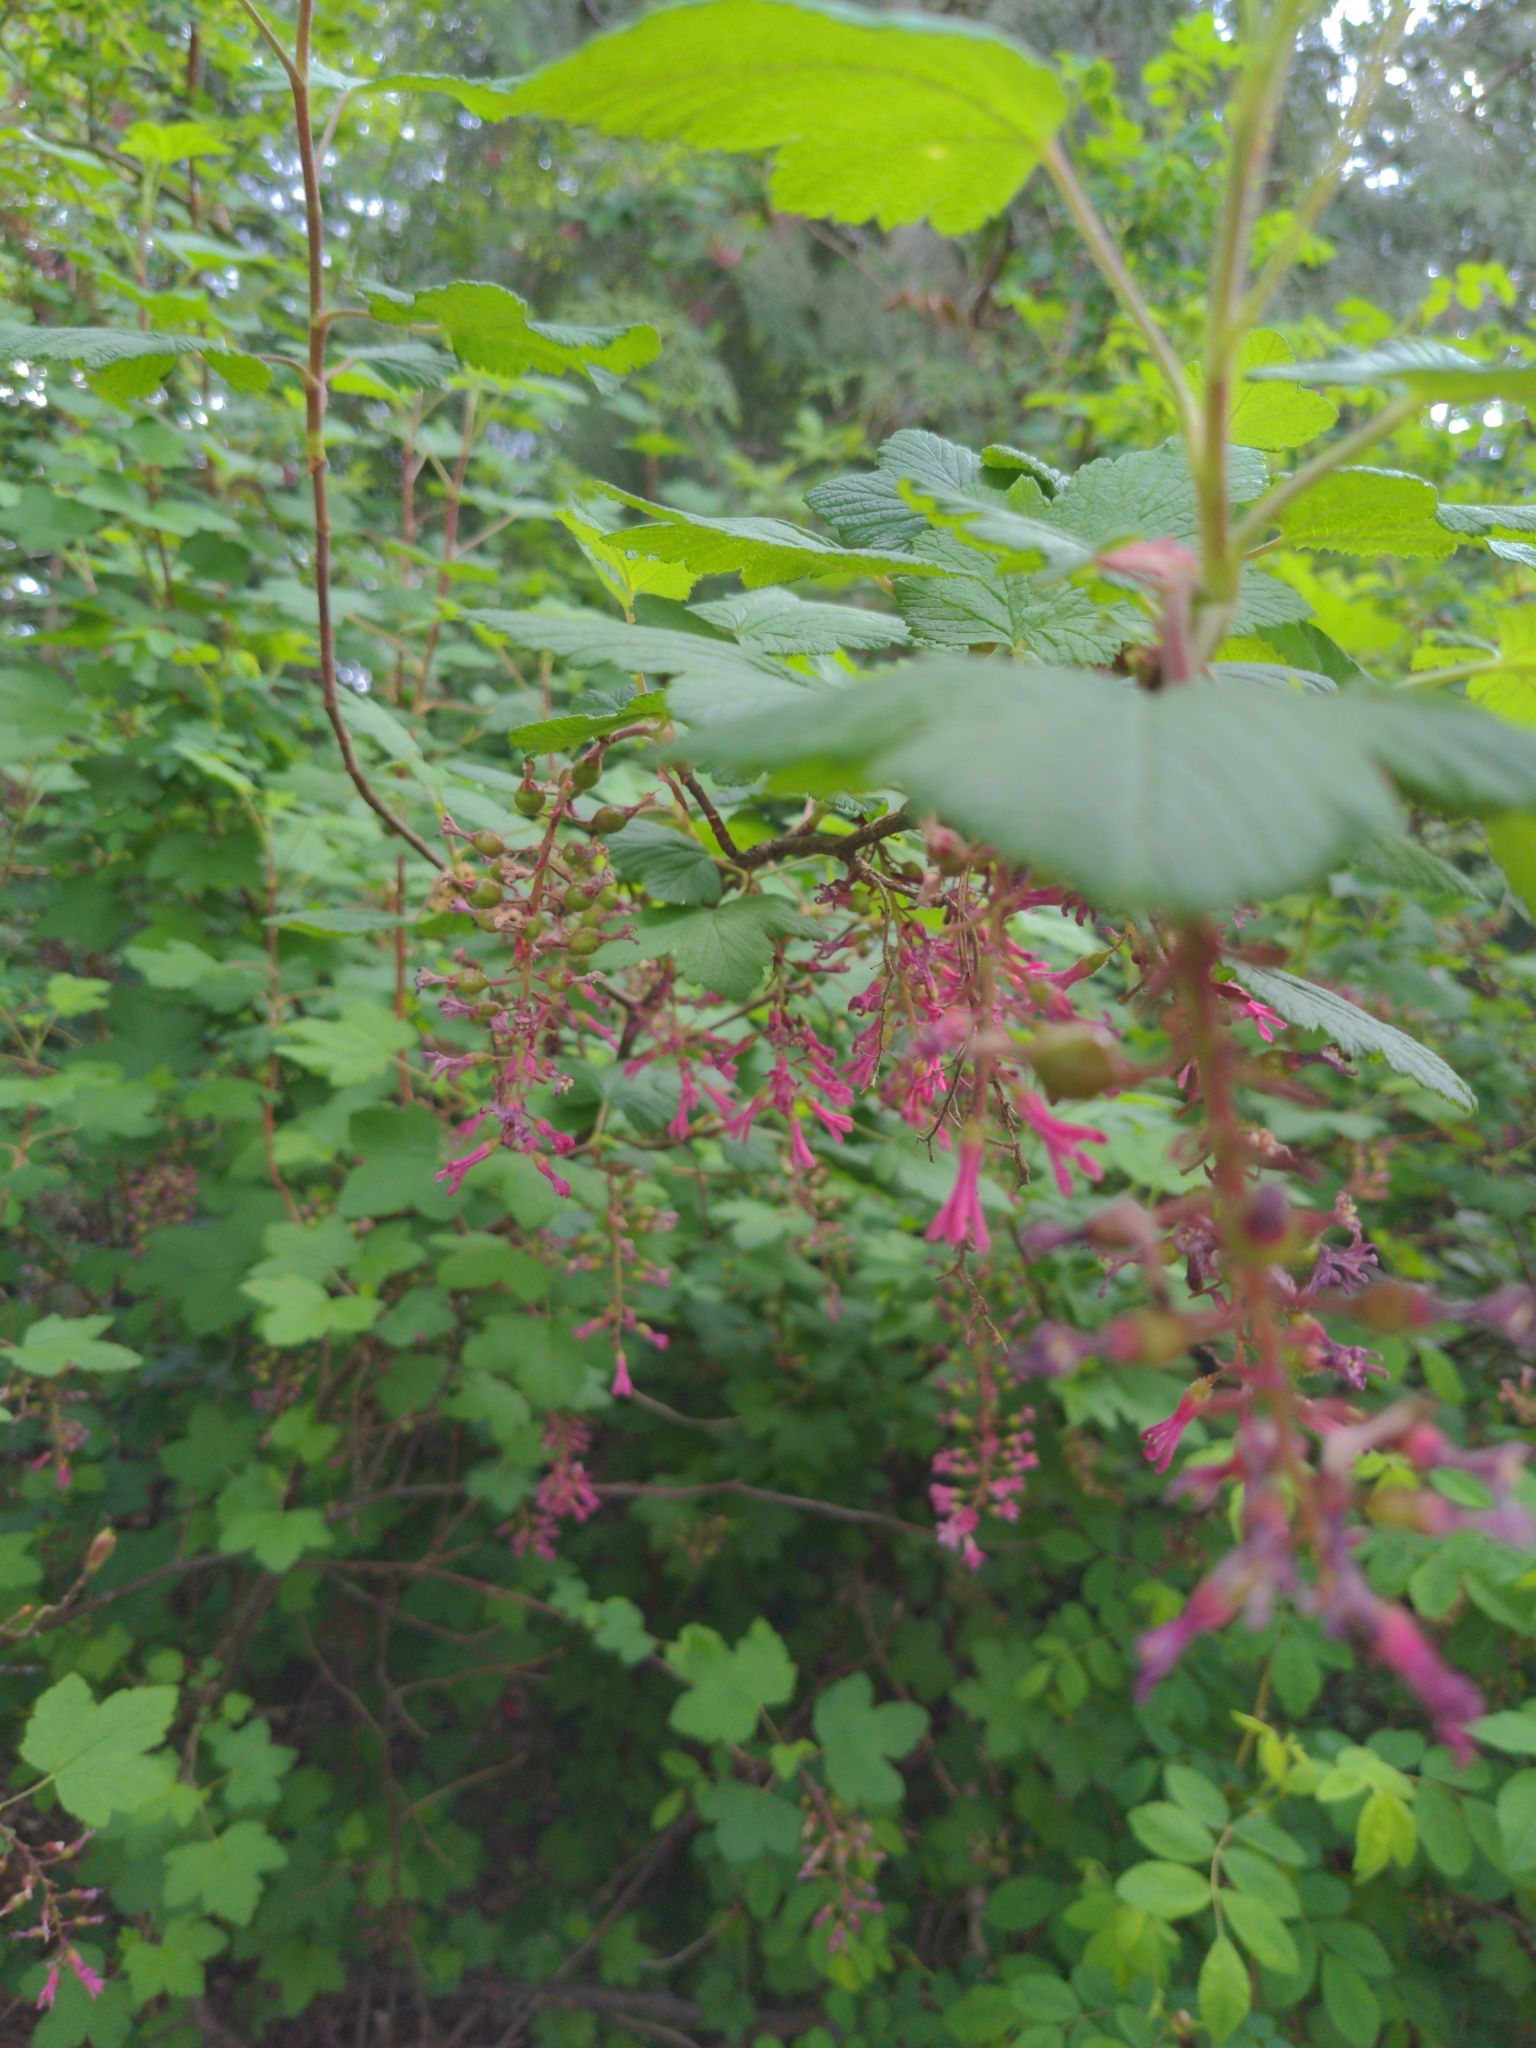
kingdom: Plantae
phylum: Tracheophyta
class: Magnoliopsida
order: Saxifragales
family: Grossulariaceae
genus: Ribes
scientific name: Ribes sanguineum
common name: Flowering currant
